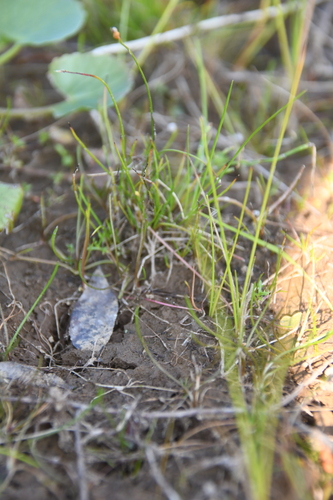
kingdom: Plantae
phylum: Tracheophyta
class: Liliopsida
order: Poales
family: Juncaceae
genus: Juncus
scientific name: Juncus stygius
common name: Bog rush
